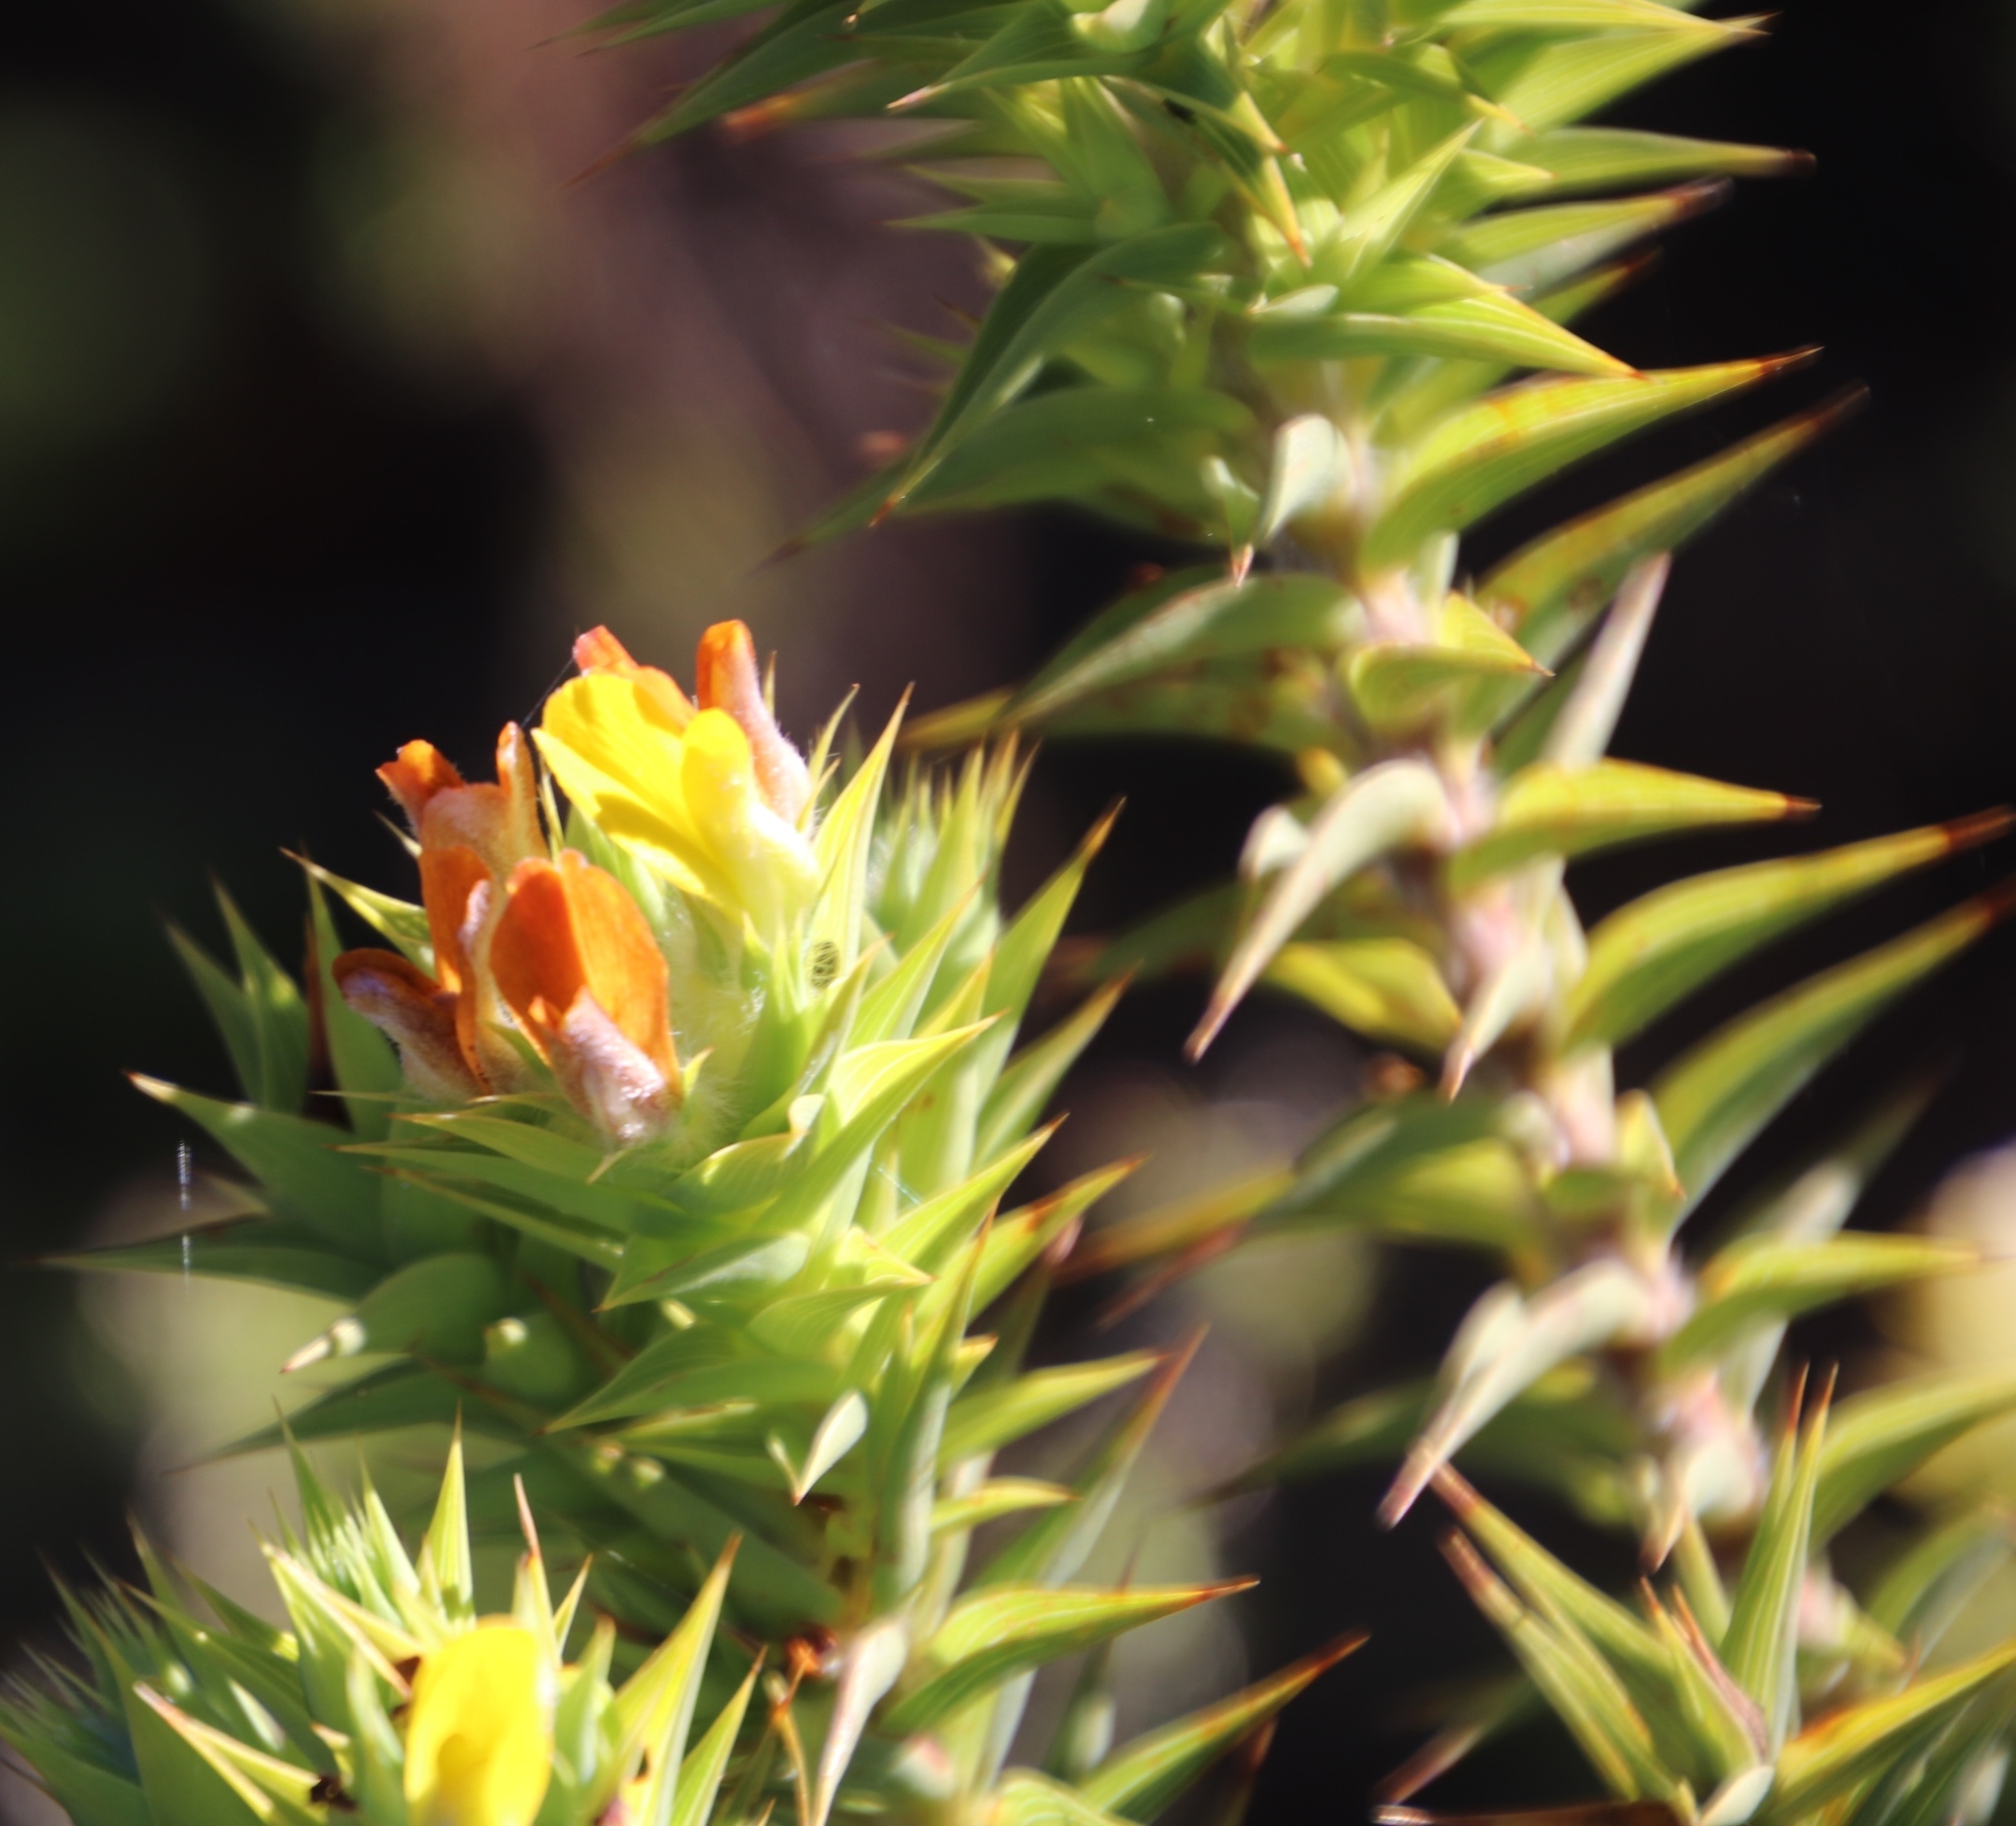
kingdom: Plantae
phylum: Tracheophyta
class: Magnoliopsida
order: Fabales
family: Fabaceae
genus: Aspalathus
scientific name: Aspalathus cordata
